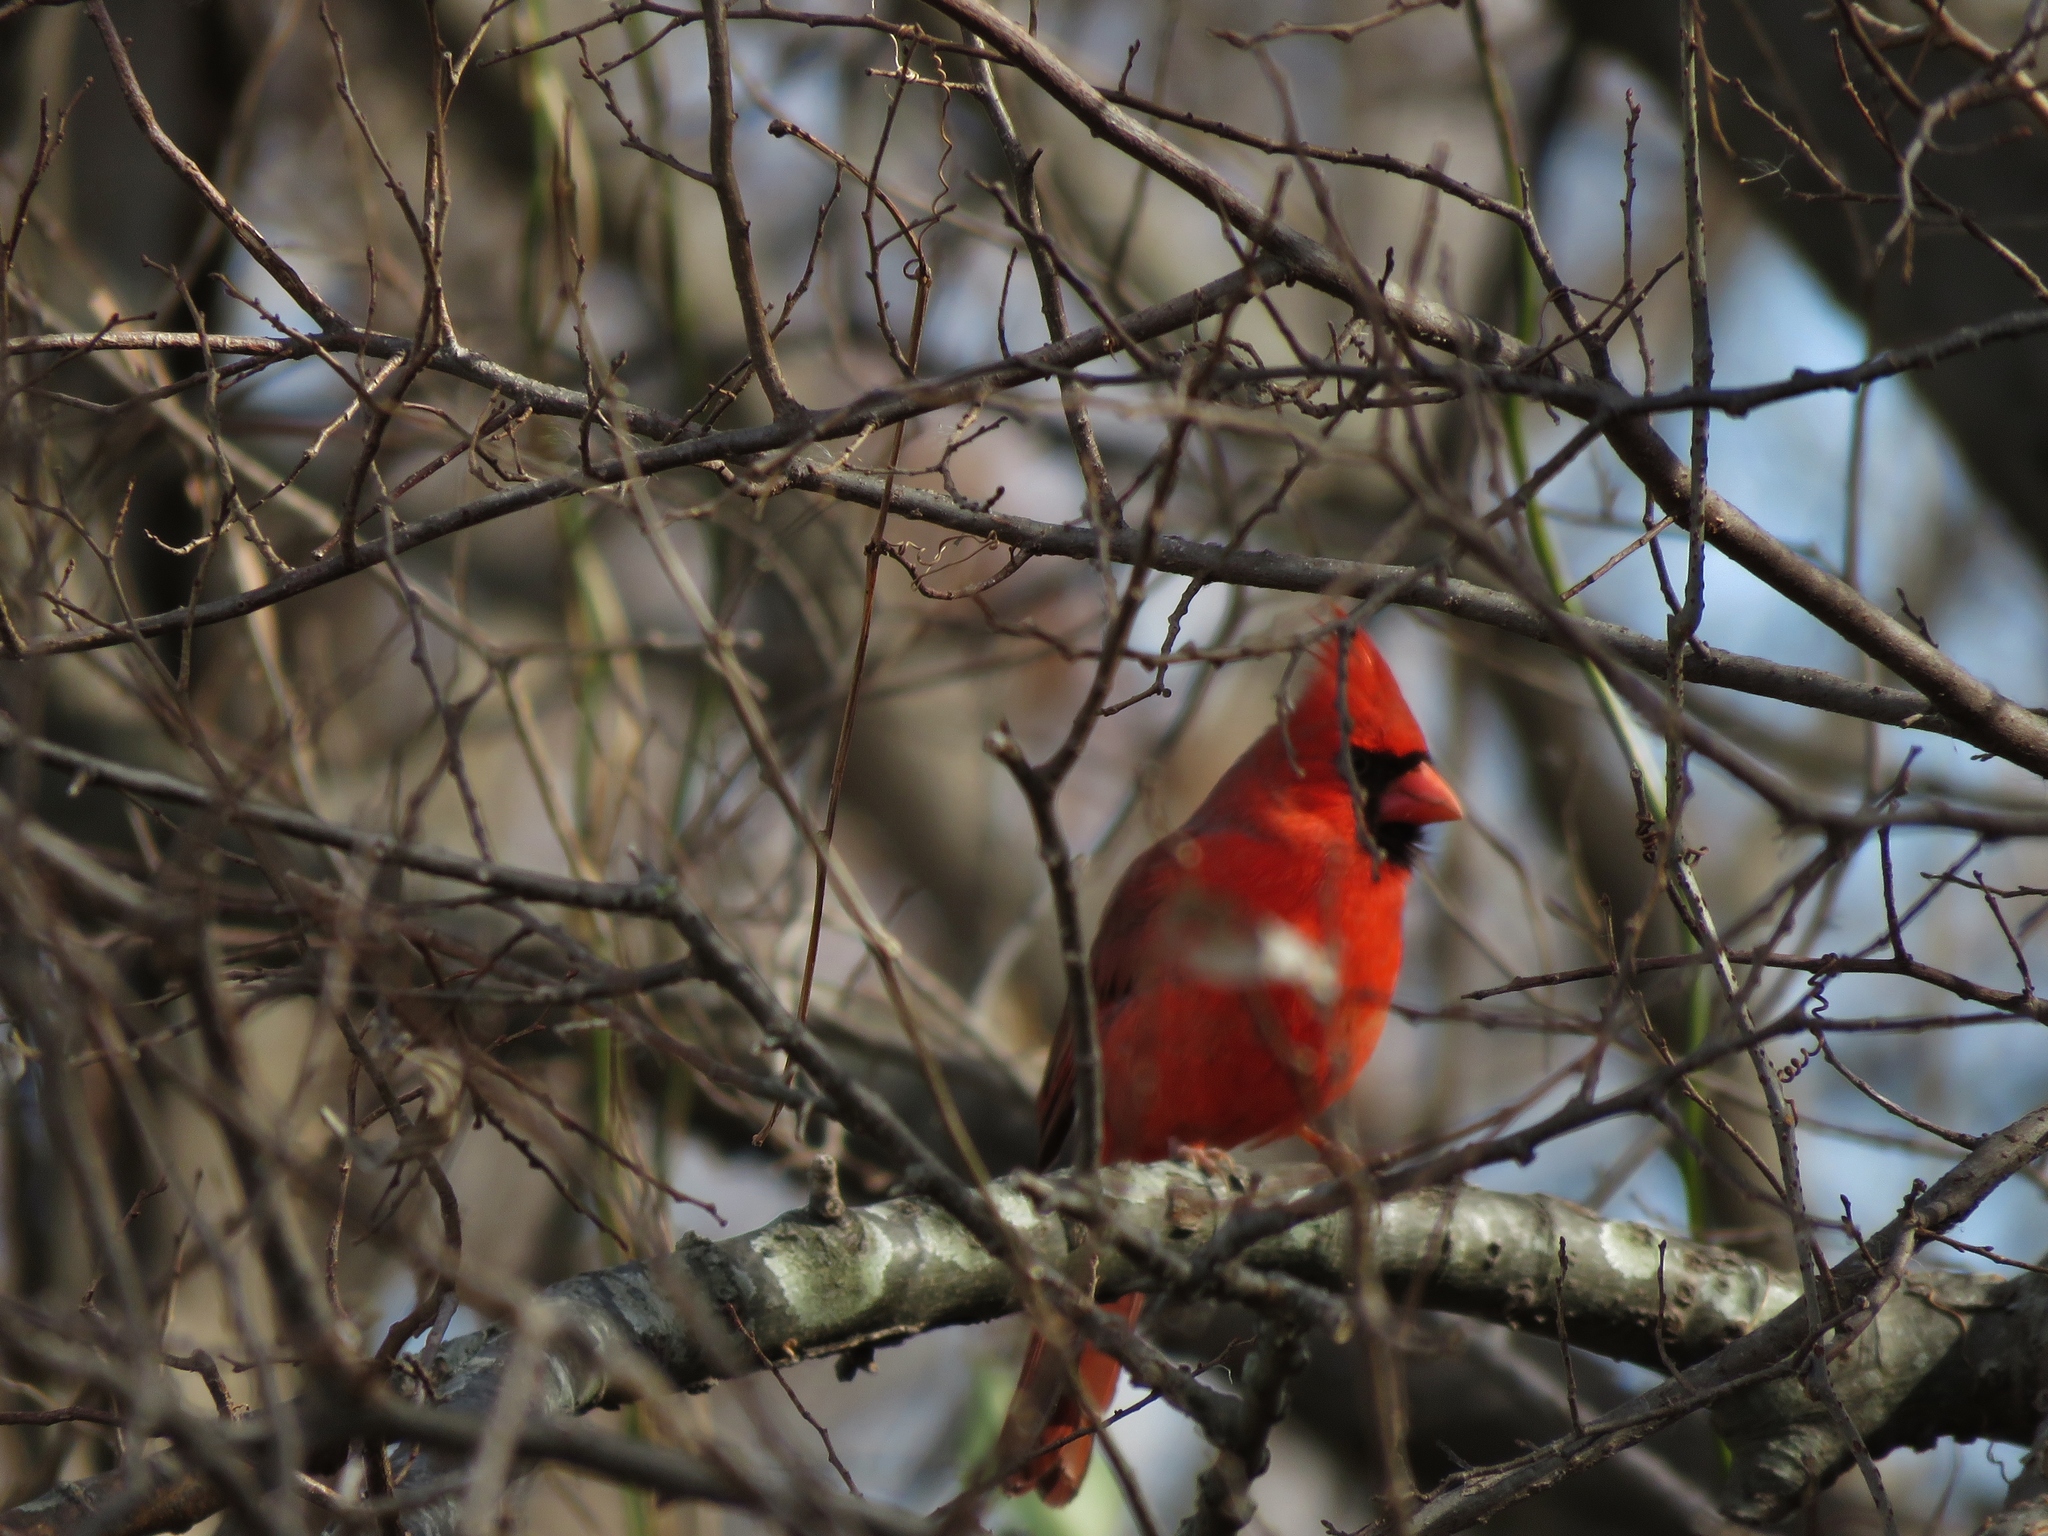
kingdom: Animalia
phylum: Chordata
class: Aves
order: Passeriformes
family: Cardinalidae
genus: Cardinalis
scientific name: Cardinalis cardinalis
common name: Northern cardinal
